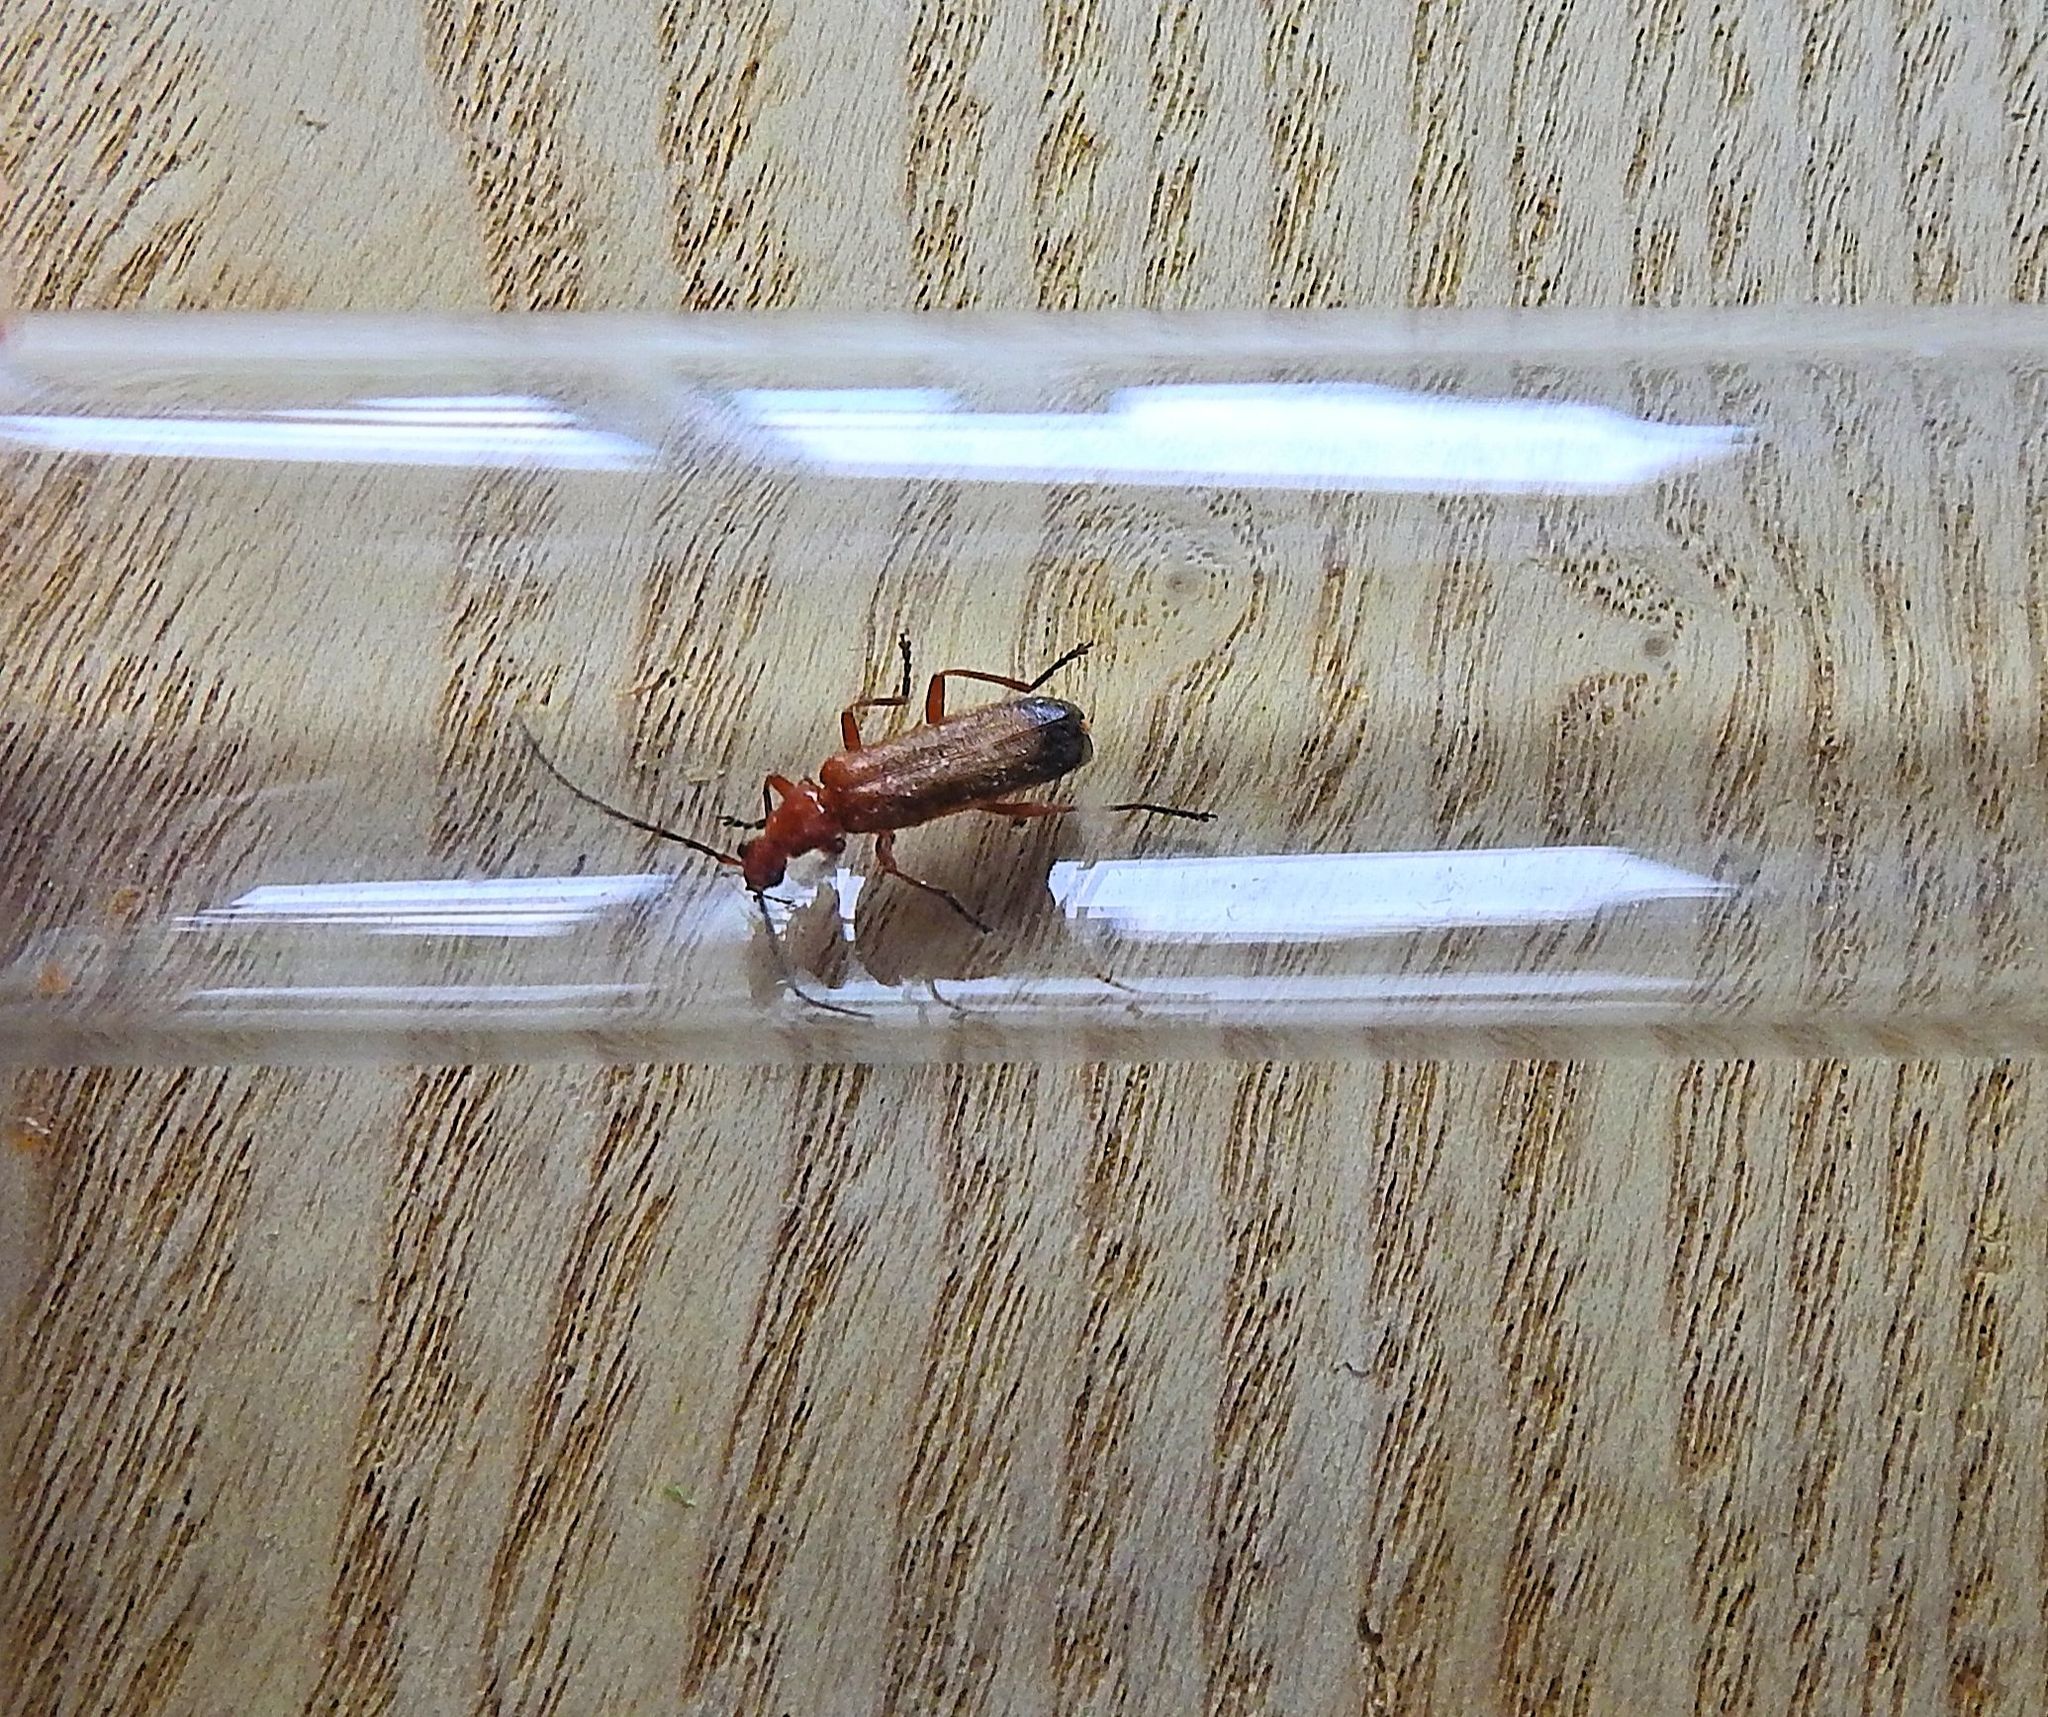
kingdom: Animalia
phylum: Arthropoda
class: Insecta
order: Coleoptera
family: Cantharidae
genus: Rhagonycha
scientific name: Rhagonycha fulva
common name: Common red soldier beetle
